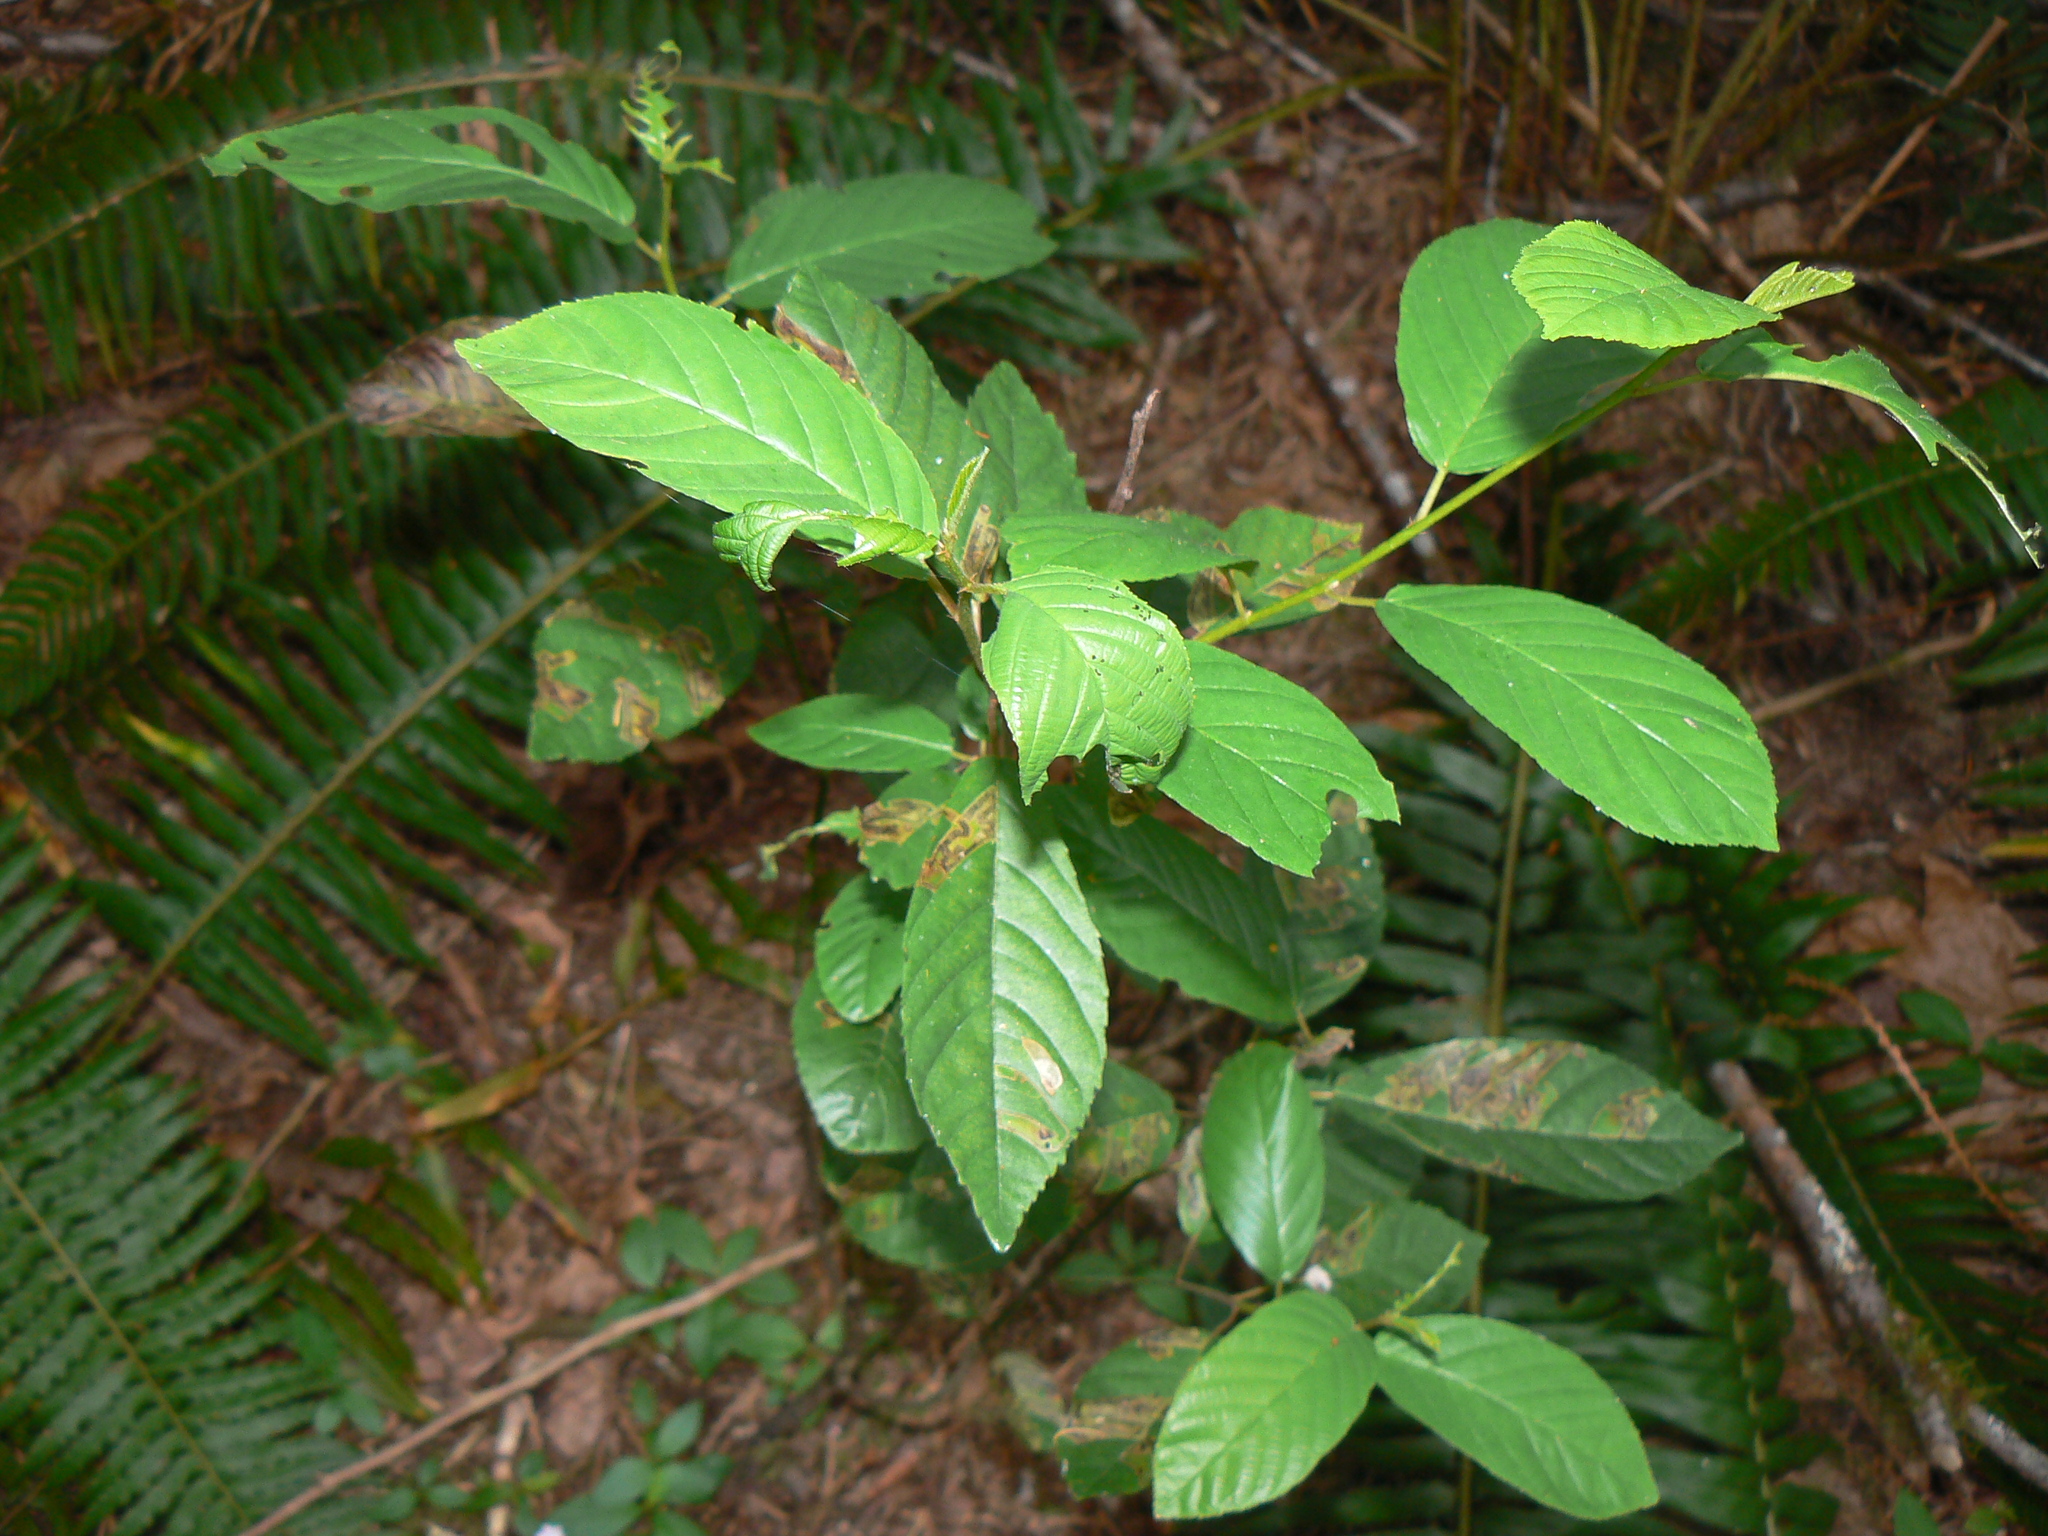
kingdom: Plantae
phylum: Tracheophyta
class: Magnoliopsida
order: Rosales
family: Rhamnaceae
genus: Frangula
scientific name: Frangula purshiana
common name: Cascara buckthorn
